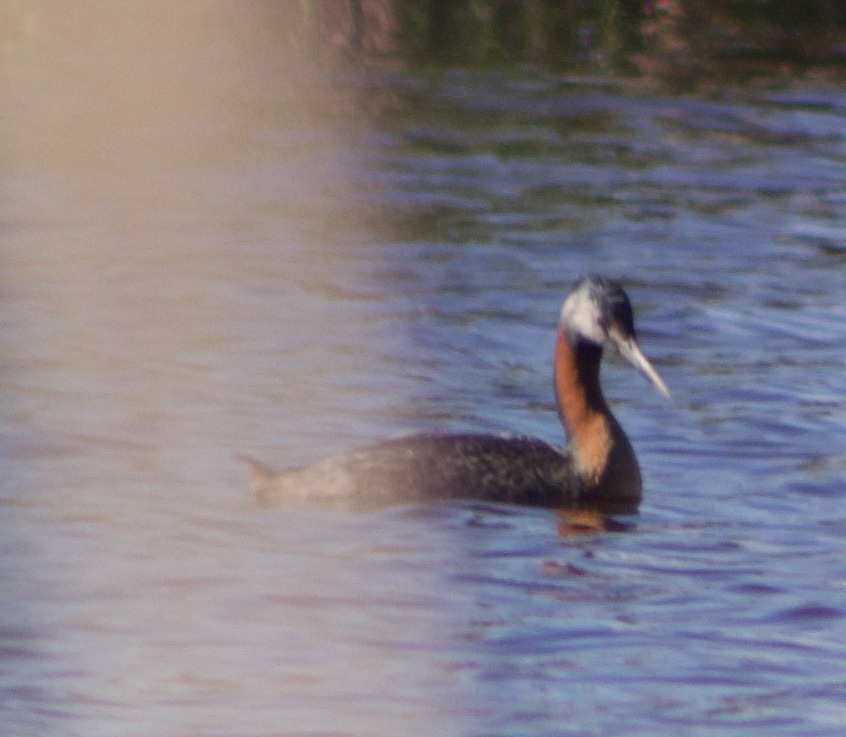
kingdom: Animalia
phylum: Chordata
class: Aves
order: Podicipediformes
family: Podicipedidae
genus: Podiceps
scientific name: Podiceps major
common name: Great grebe
